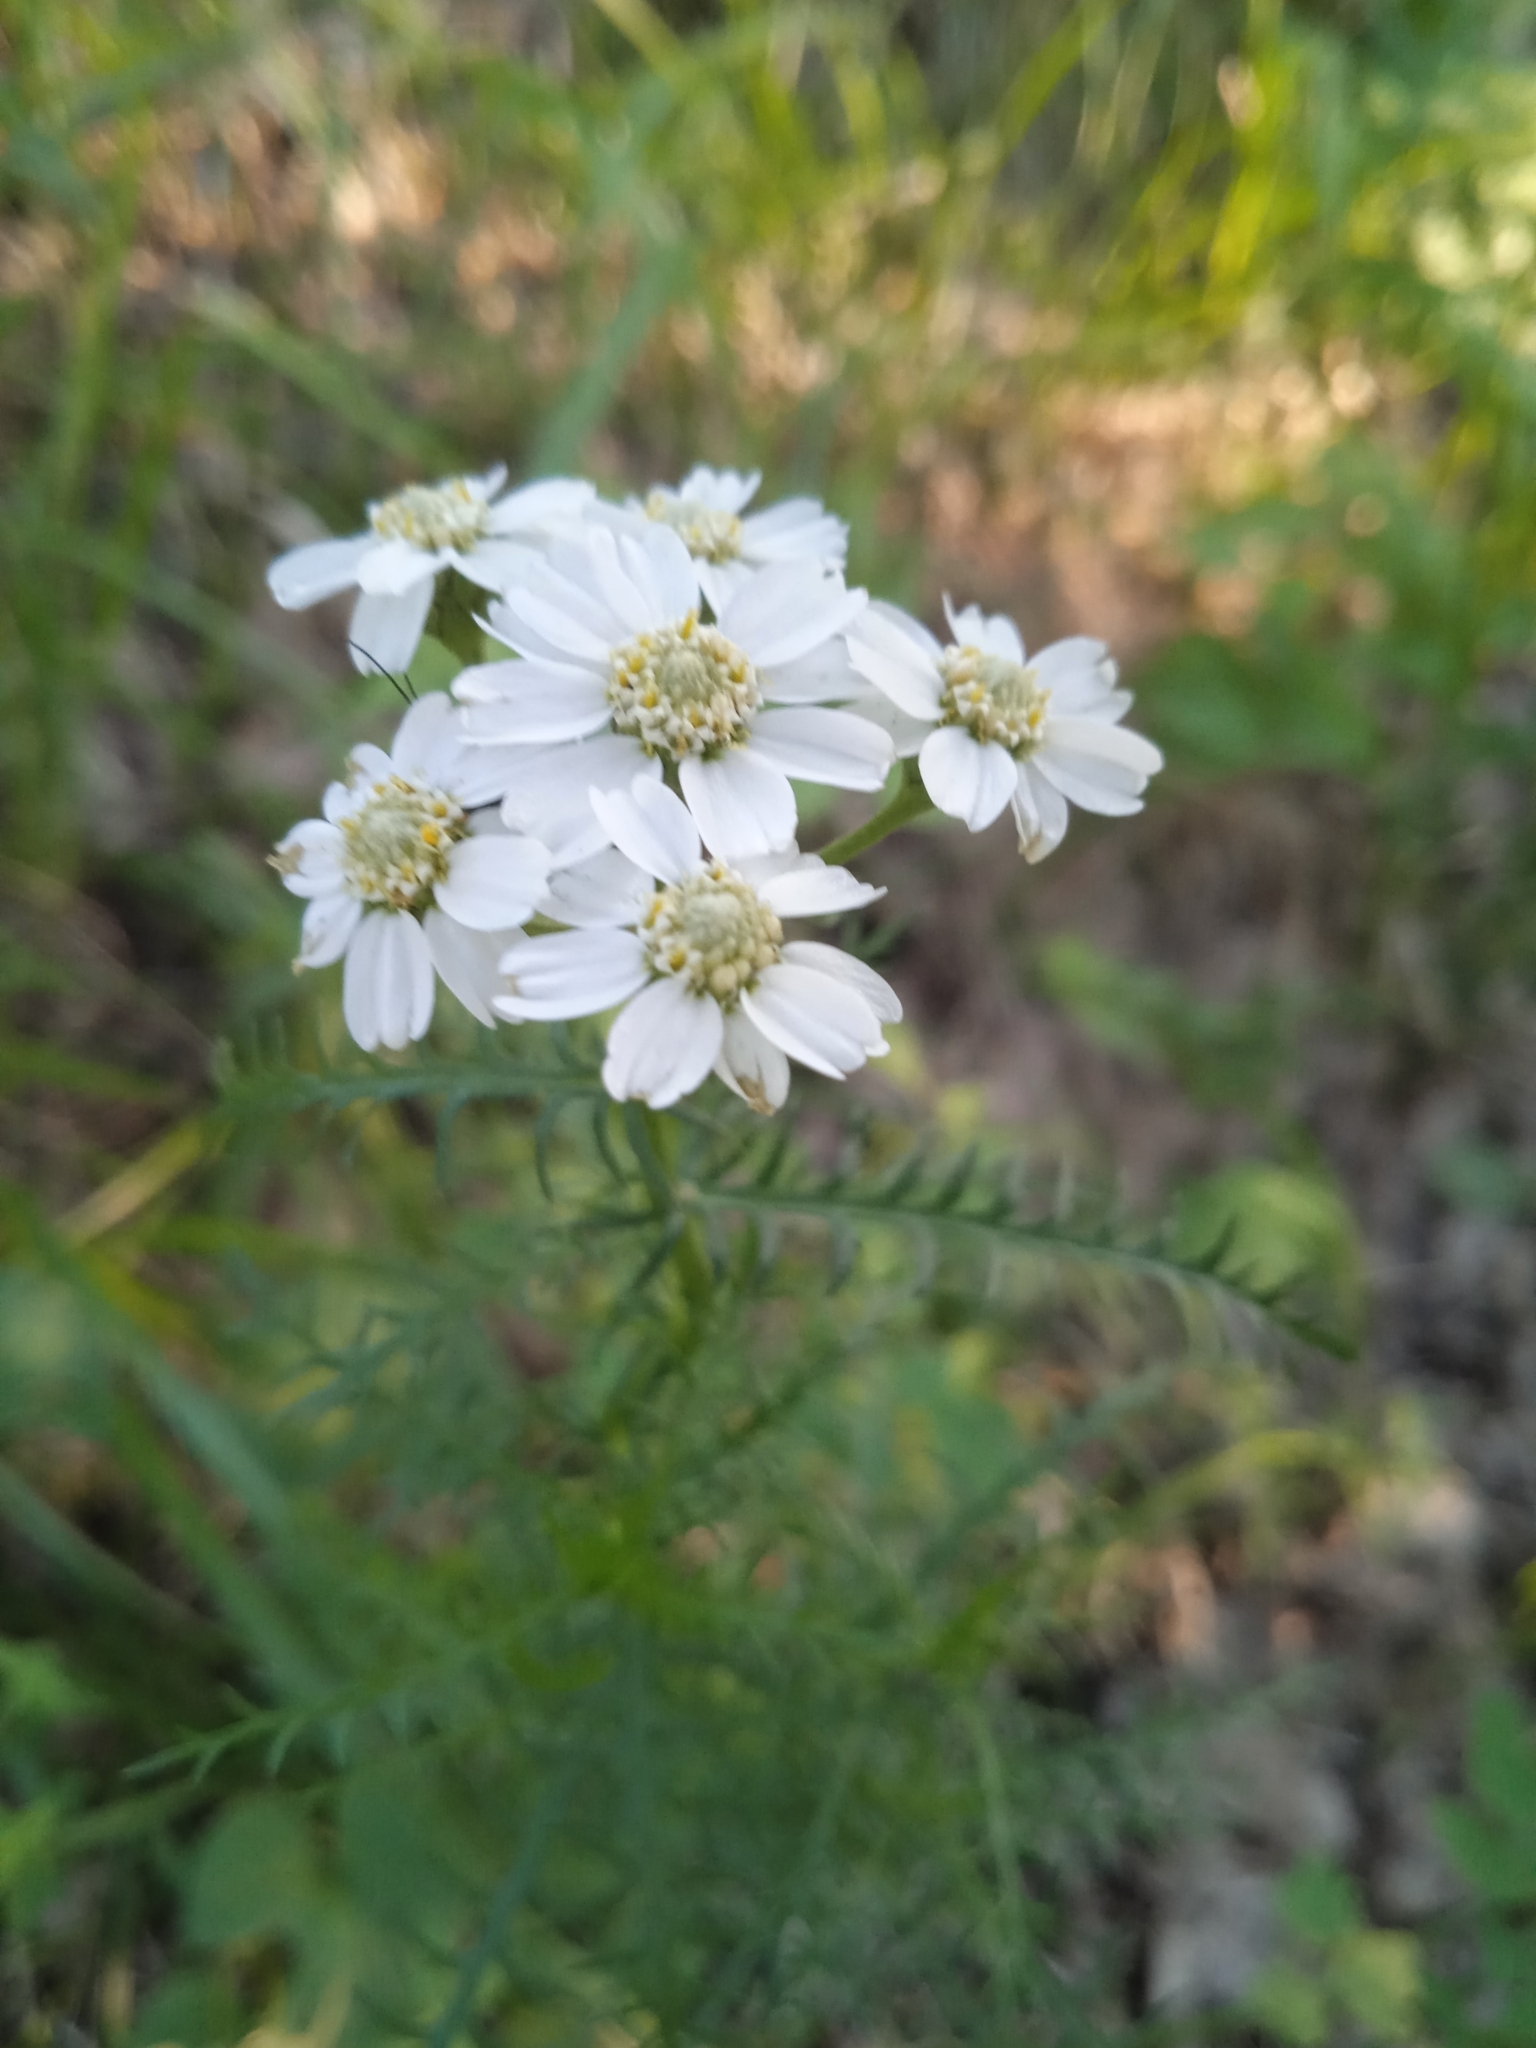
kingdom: Plantae
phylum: Tracheophyta
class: Magnoliopsida
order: Asterales
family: Asteraceae
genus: Achillea
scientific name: Achillea impatiens
